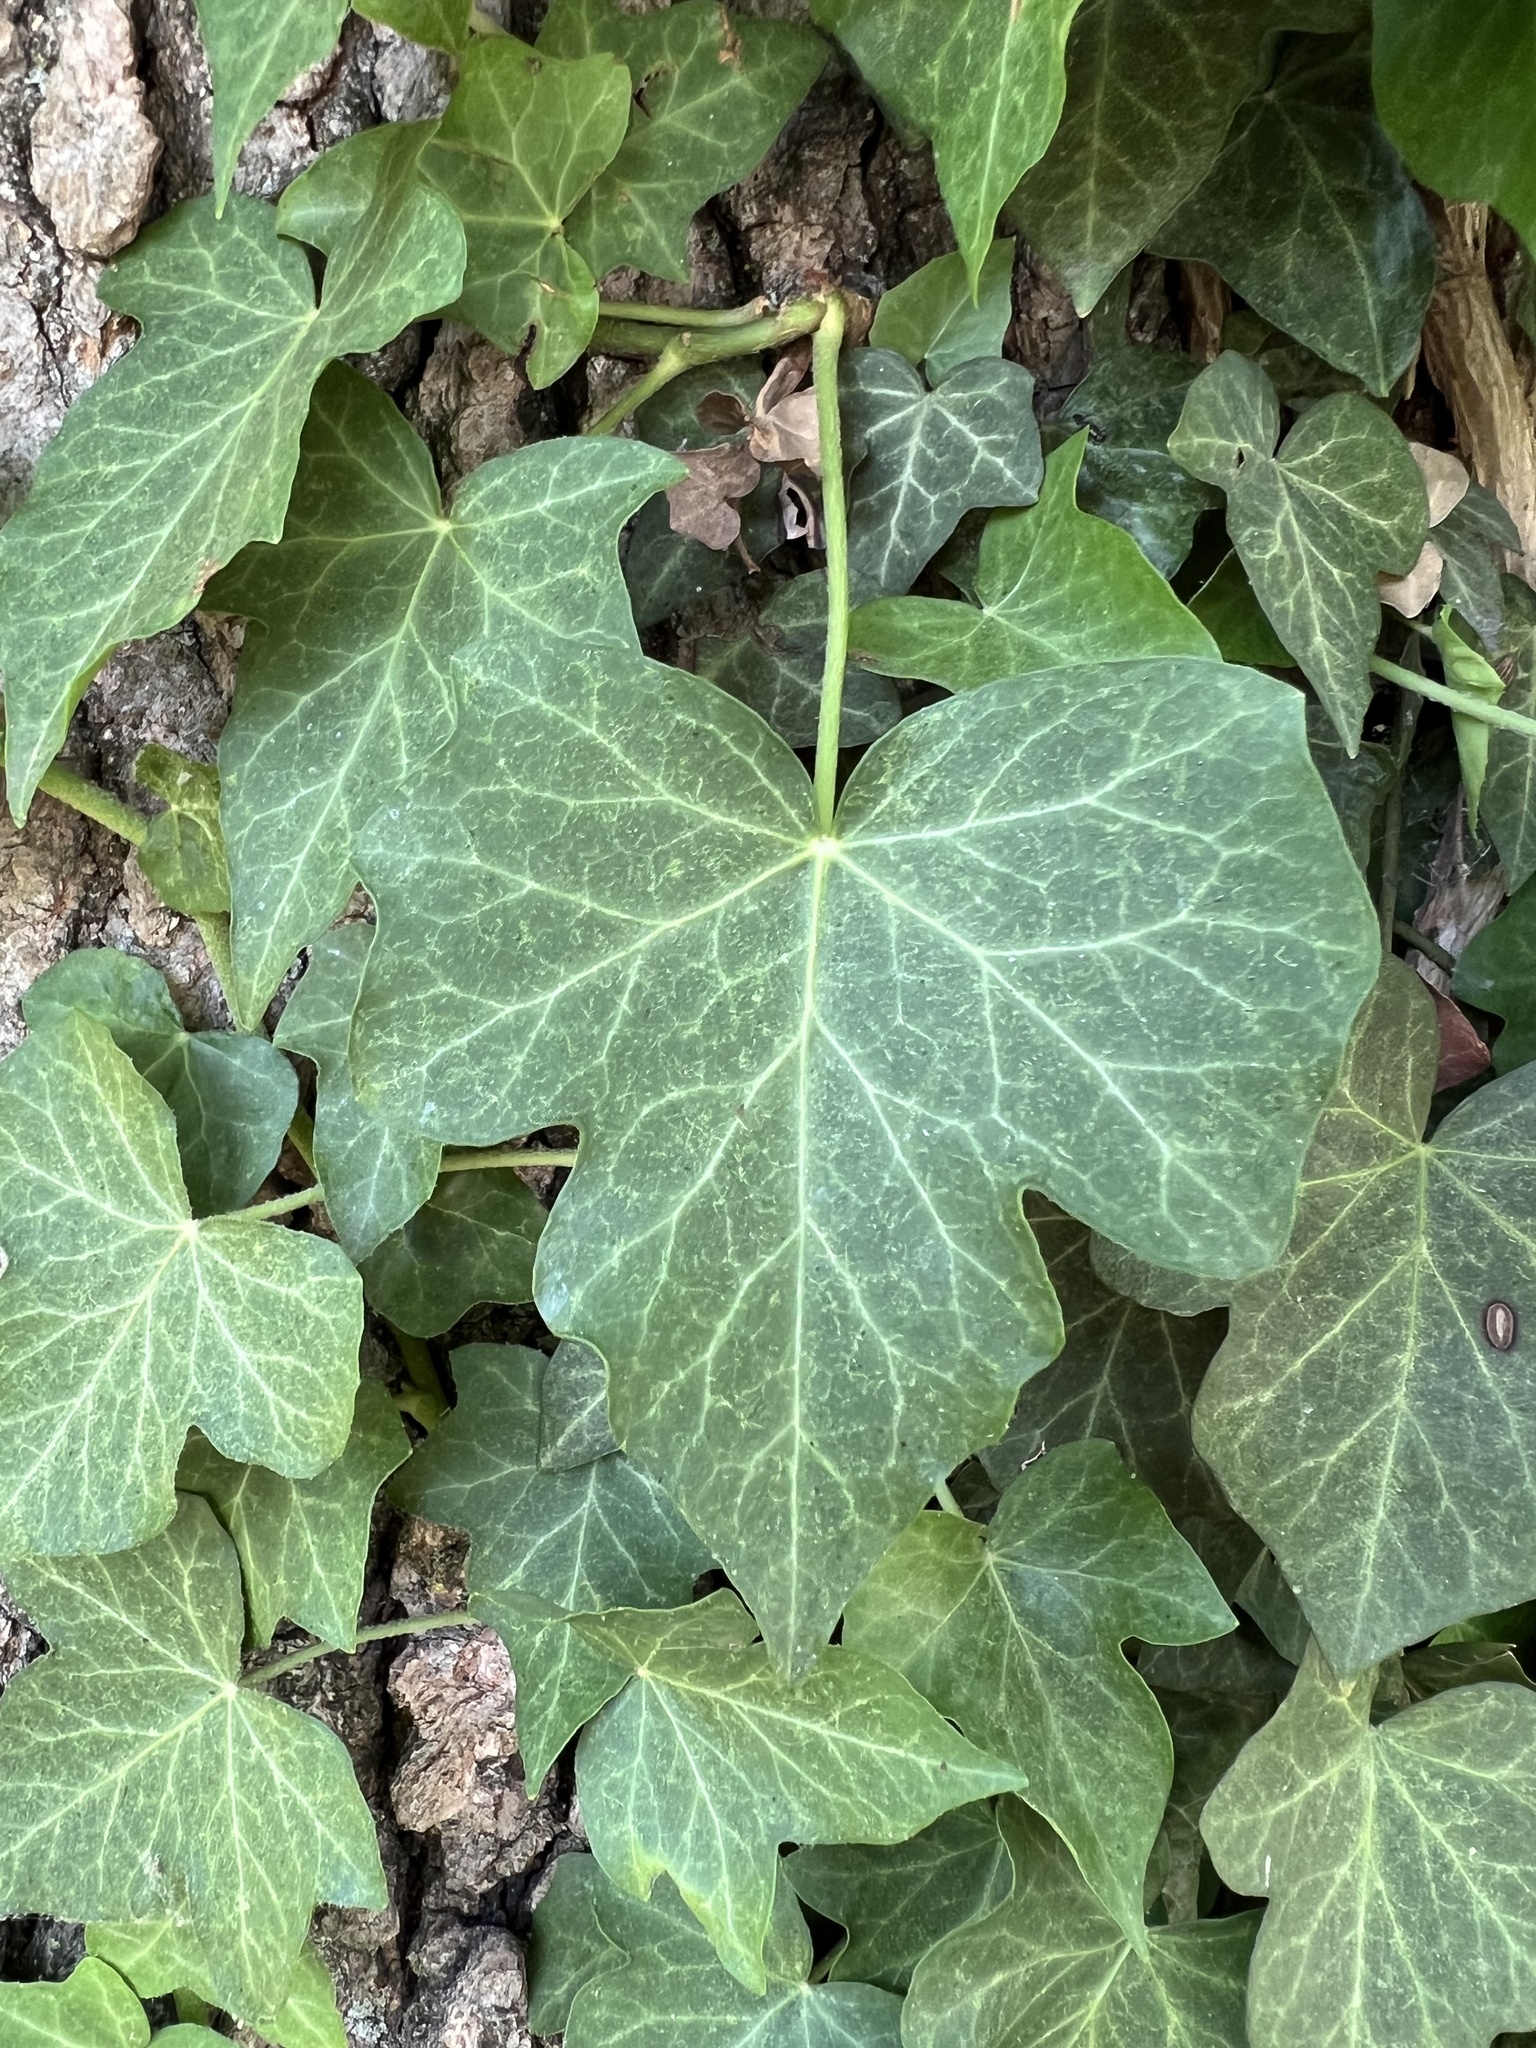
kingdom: Plantae
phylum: Tracheophyta
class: Magnoliopsida
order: Apiales
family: Araliaceae
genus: Hedera
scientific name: Hedera helix
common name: Ivy
